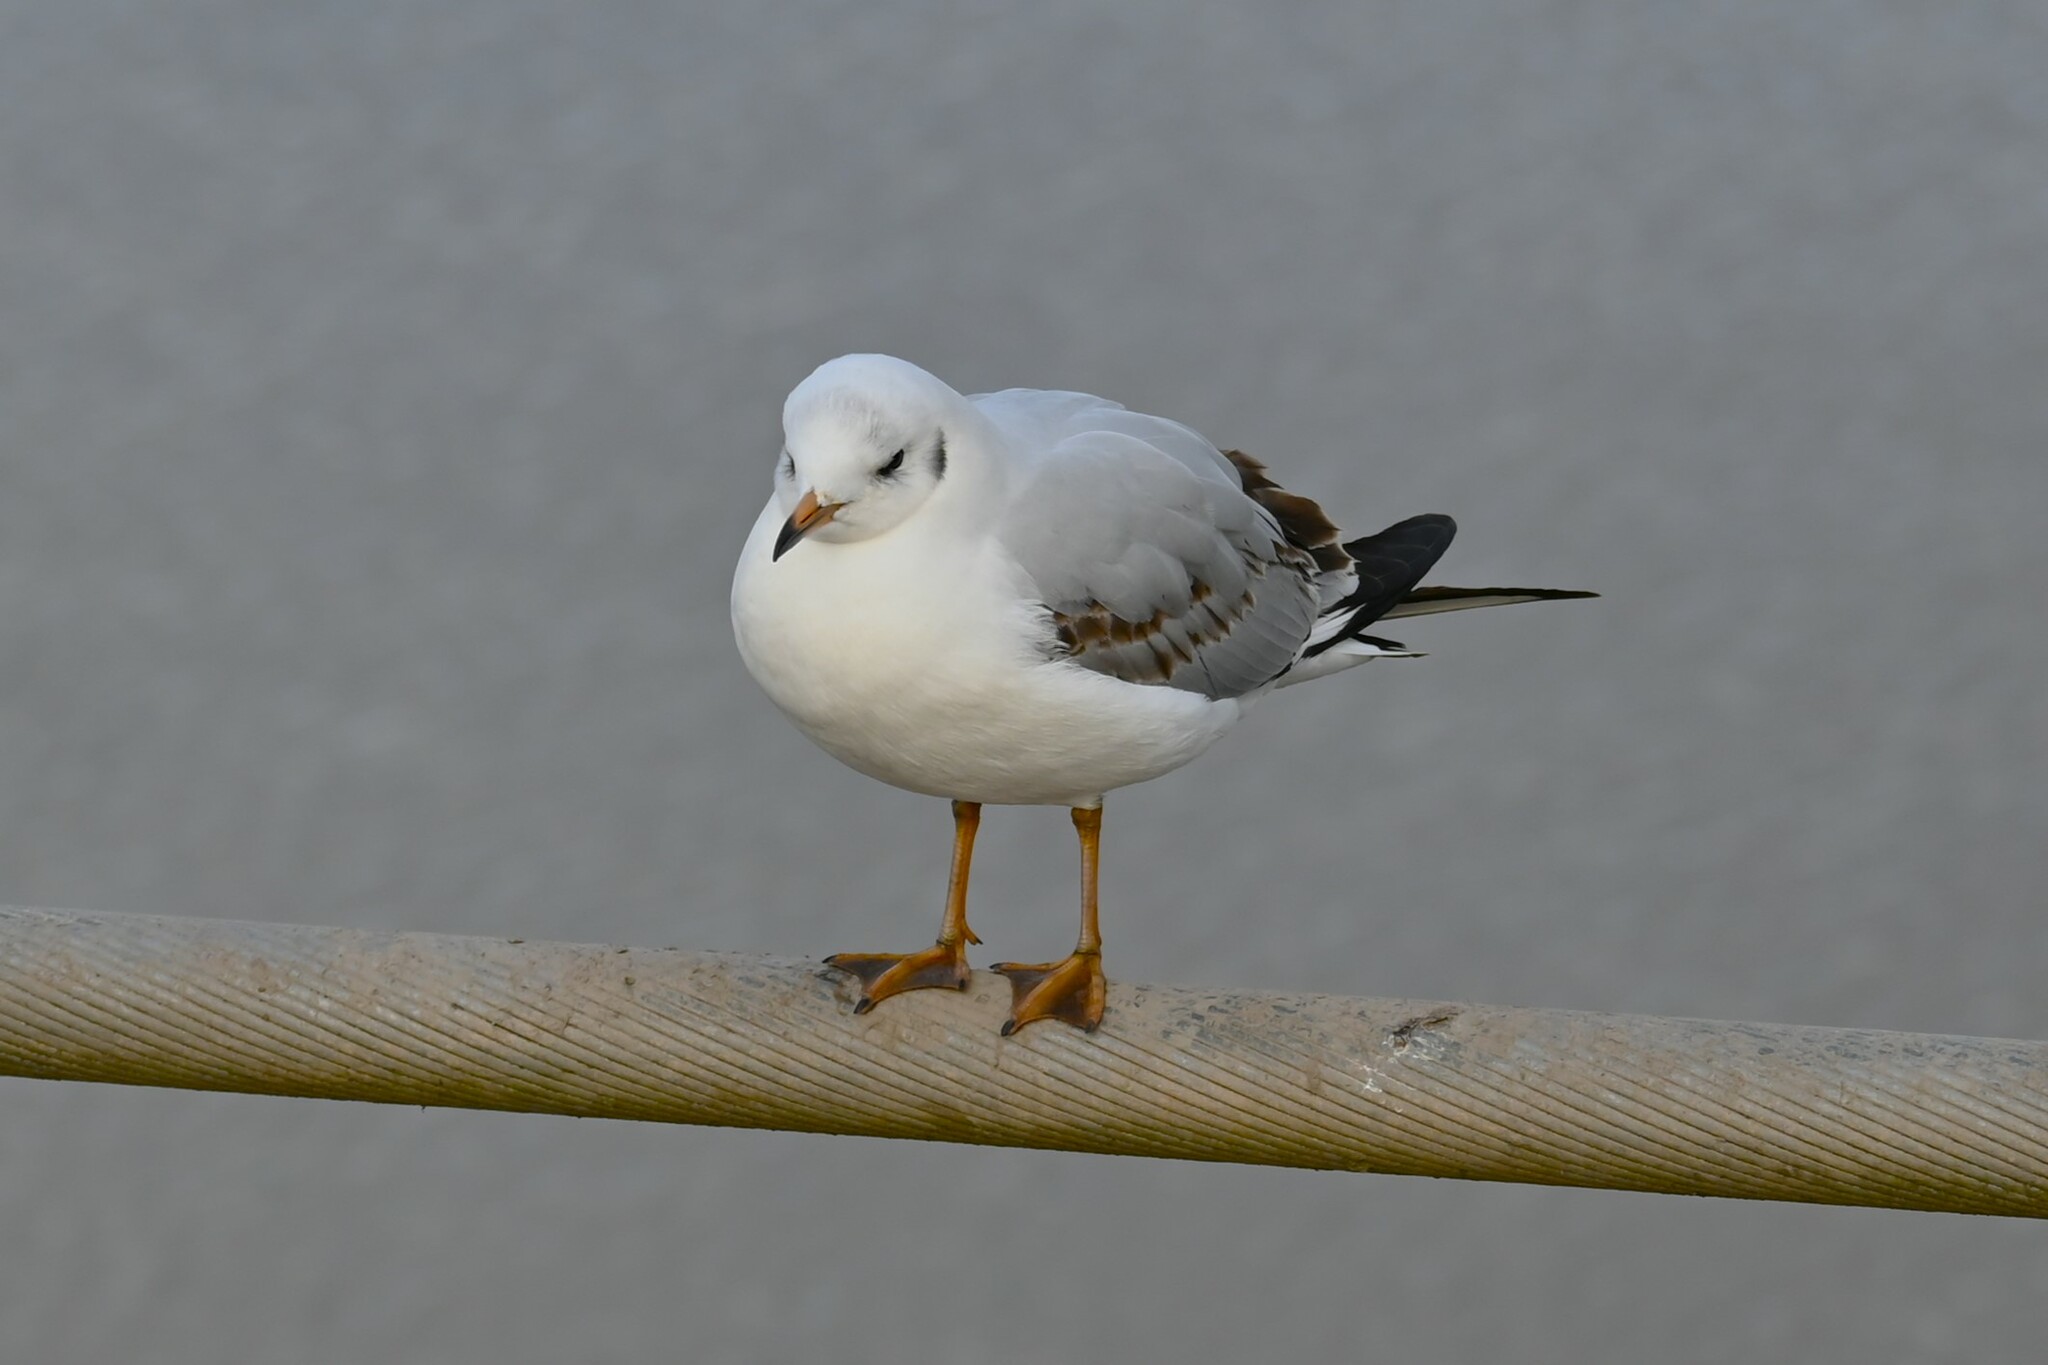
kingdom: Animalia
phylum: Chordata
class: Aves
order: Charadriiformes
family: Laridae
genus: Chroicocephalus
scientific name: Chroicocephalus ridibundus
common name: Black-headed gull
